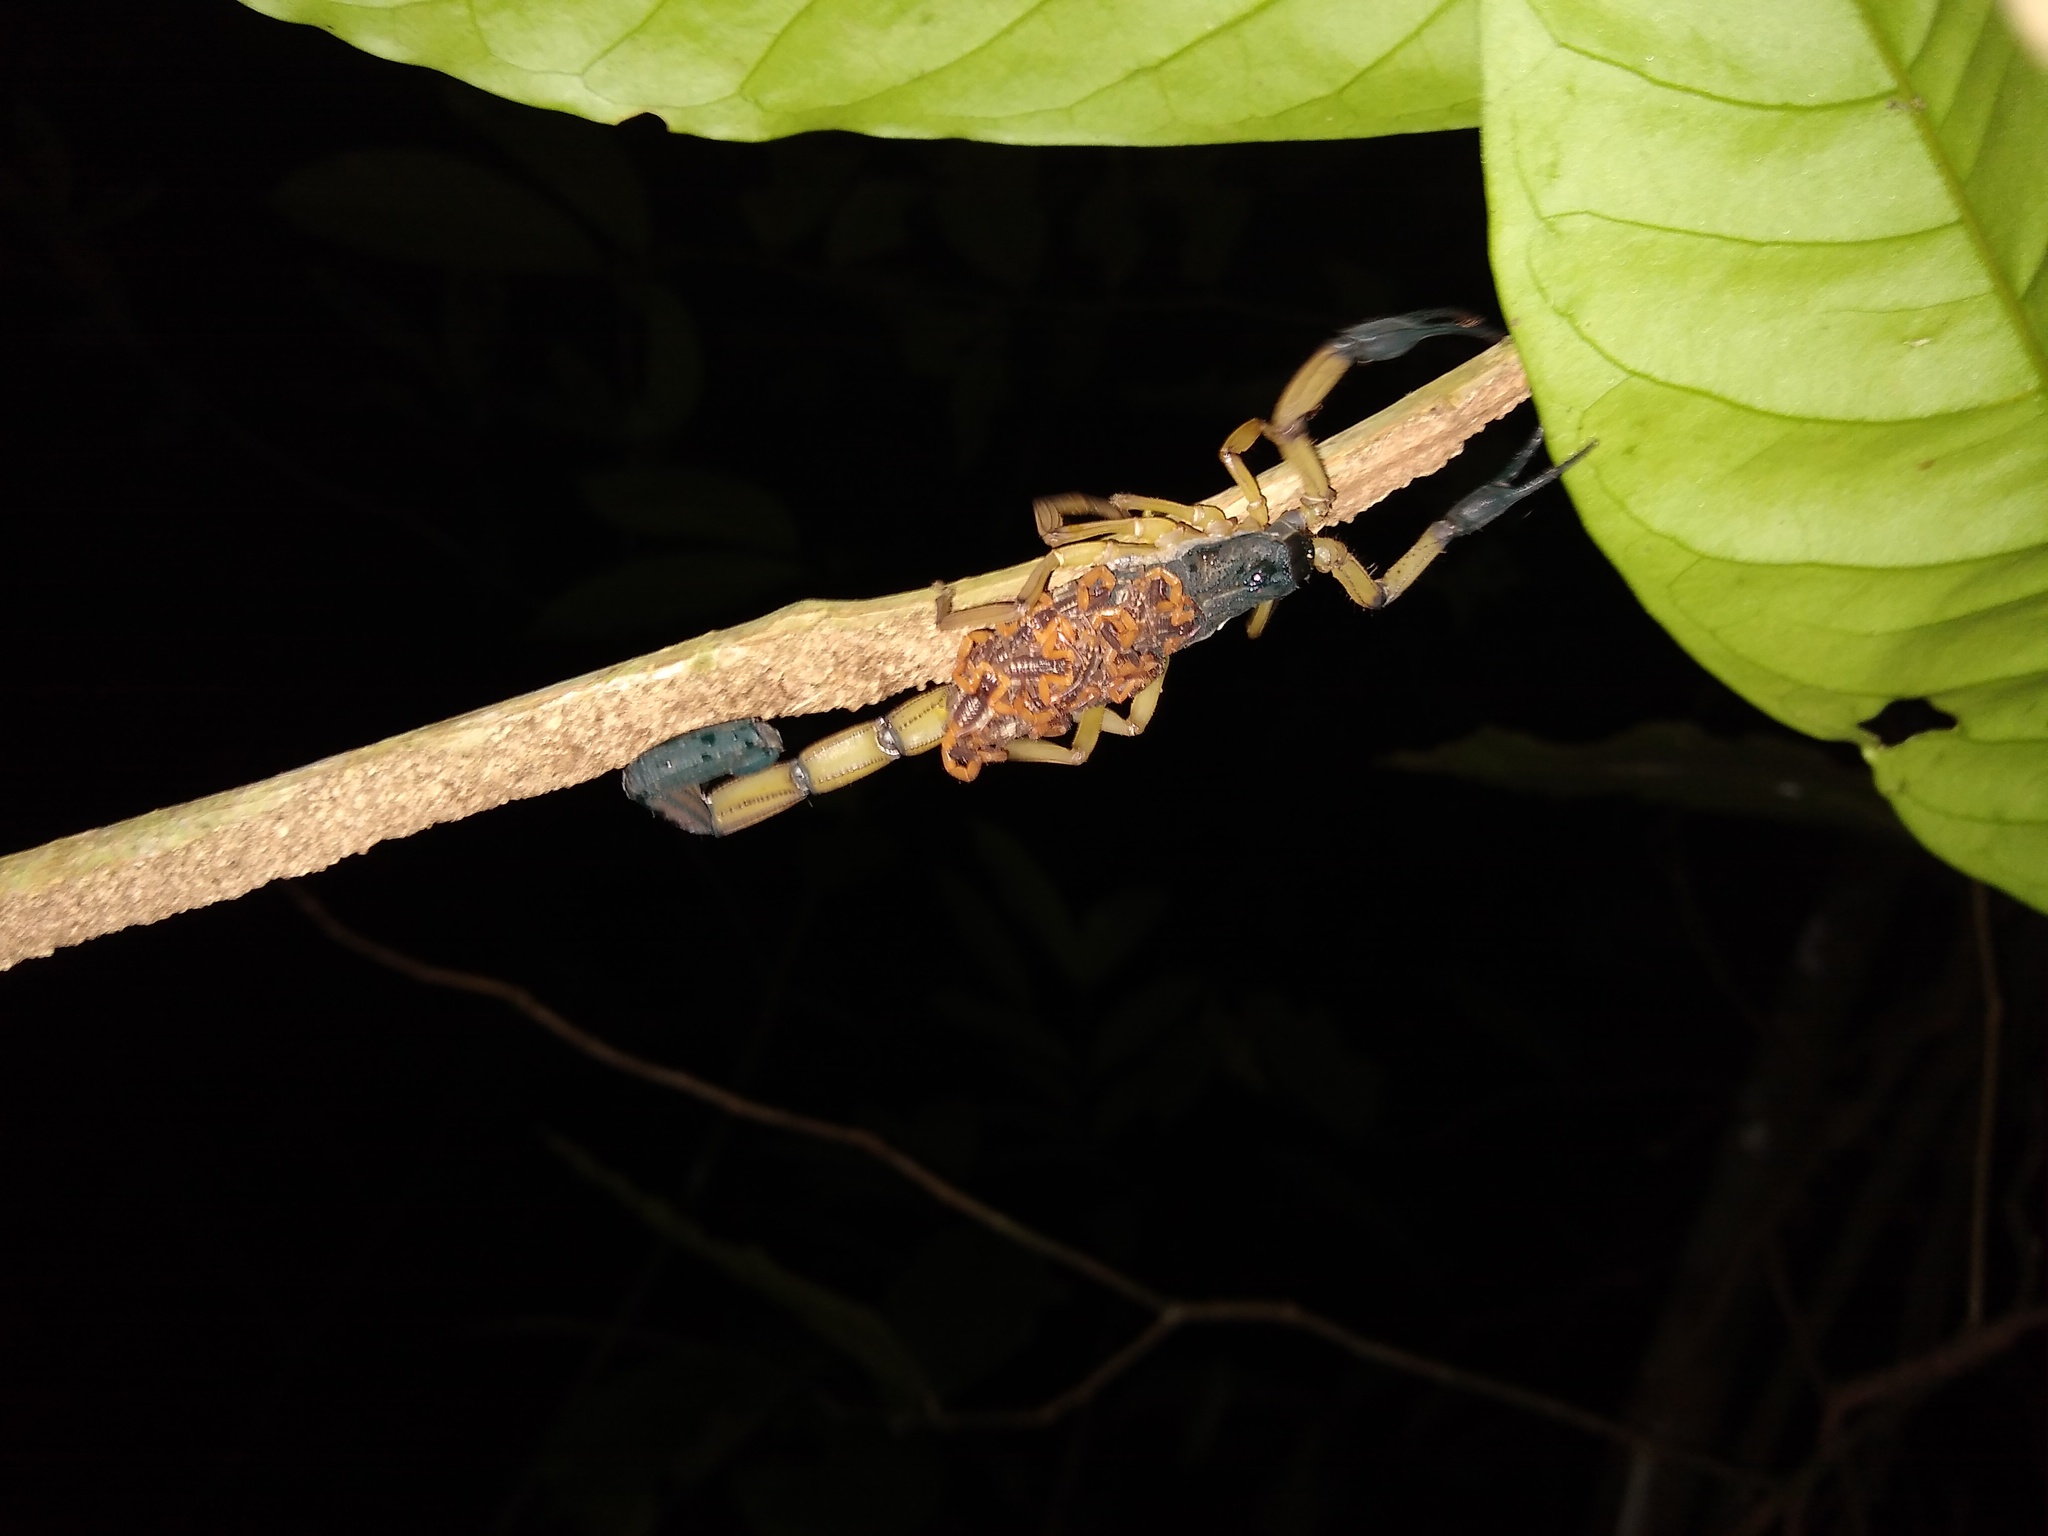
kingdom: Animalia
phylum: Arthropoda
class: Arachnida
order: Scorpiones
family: Buthidae
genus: Centruroides
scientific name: Centruroides bicolor
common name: Scorpions
